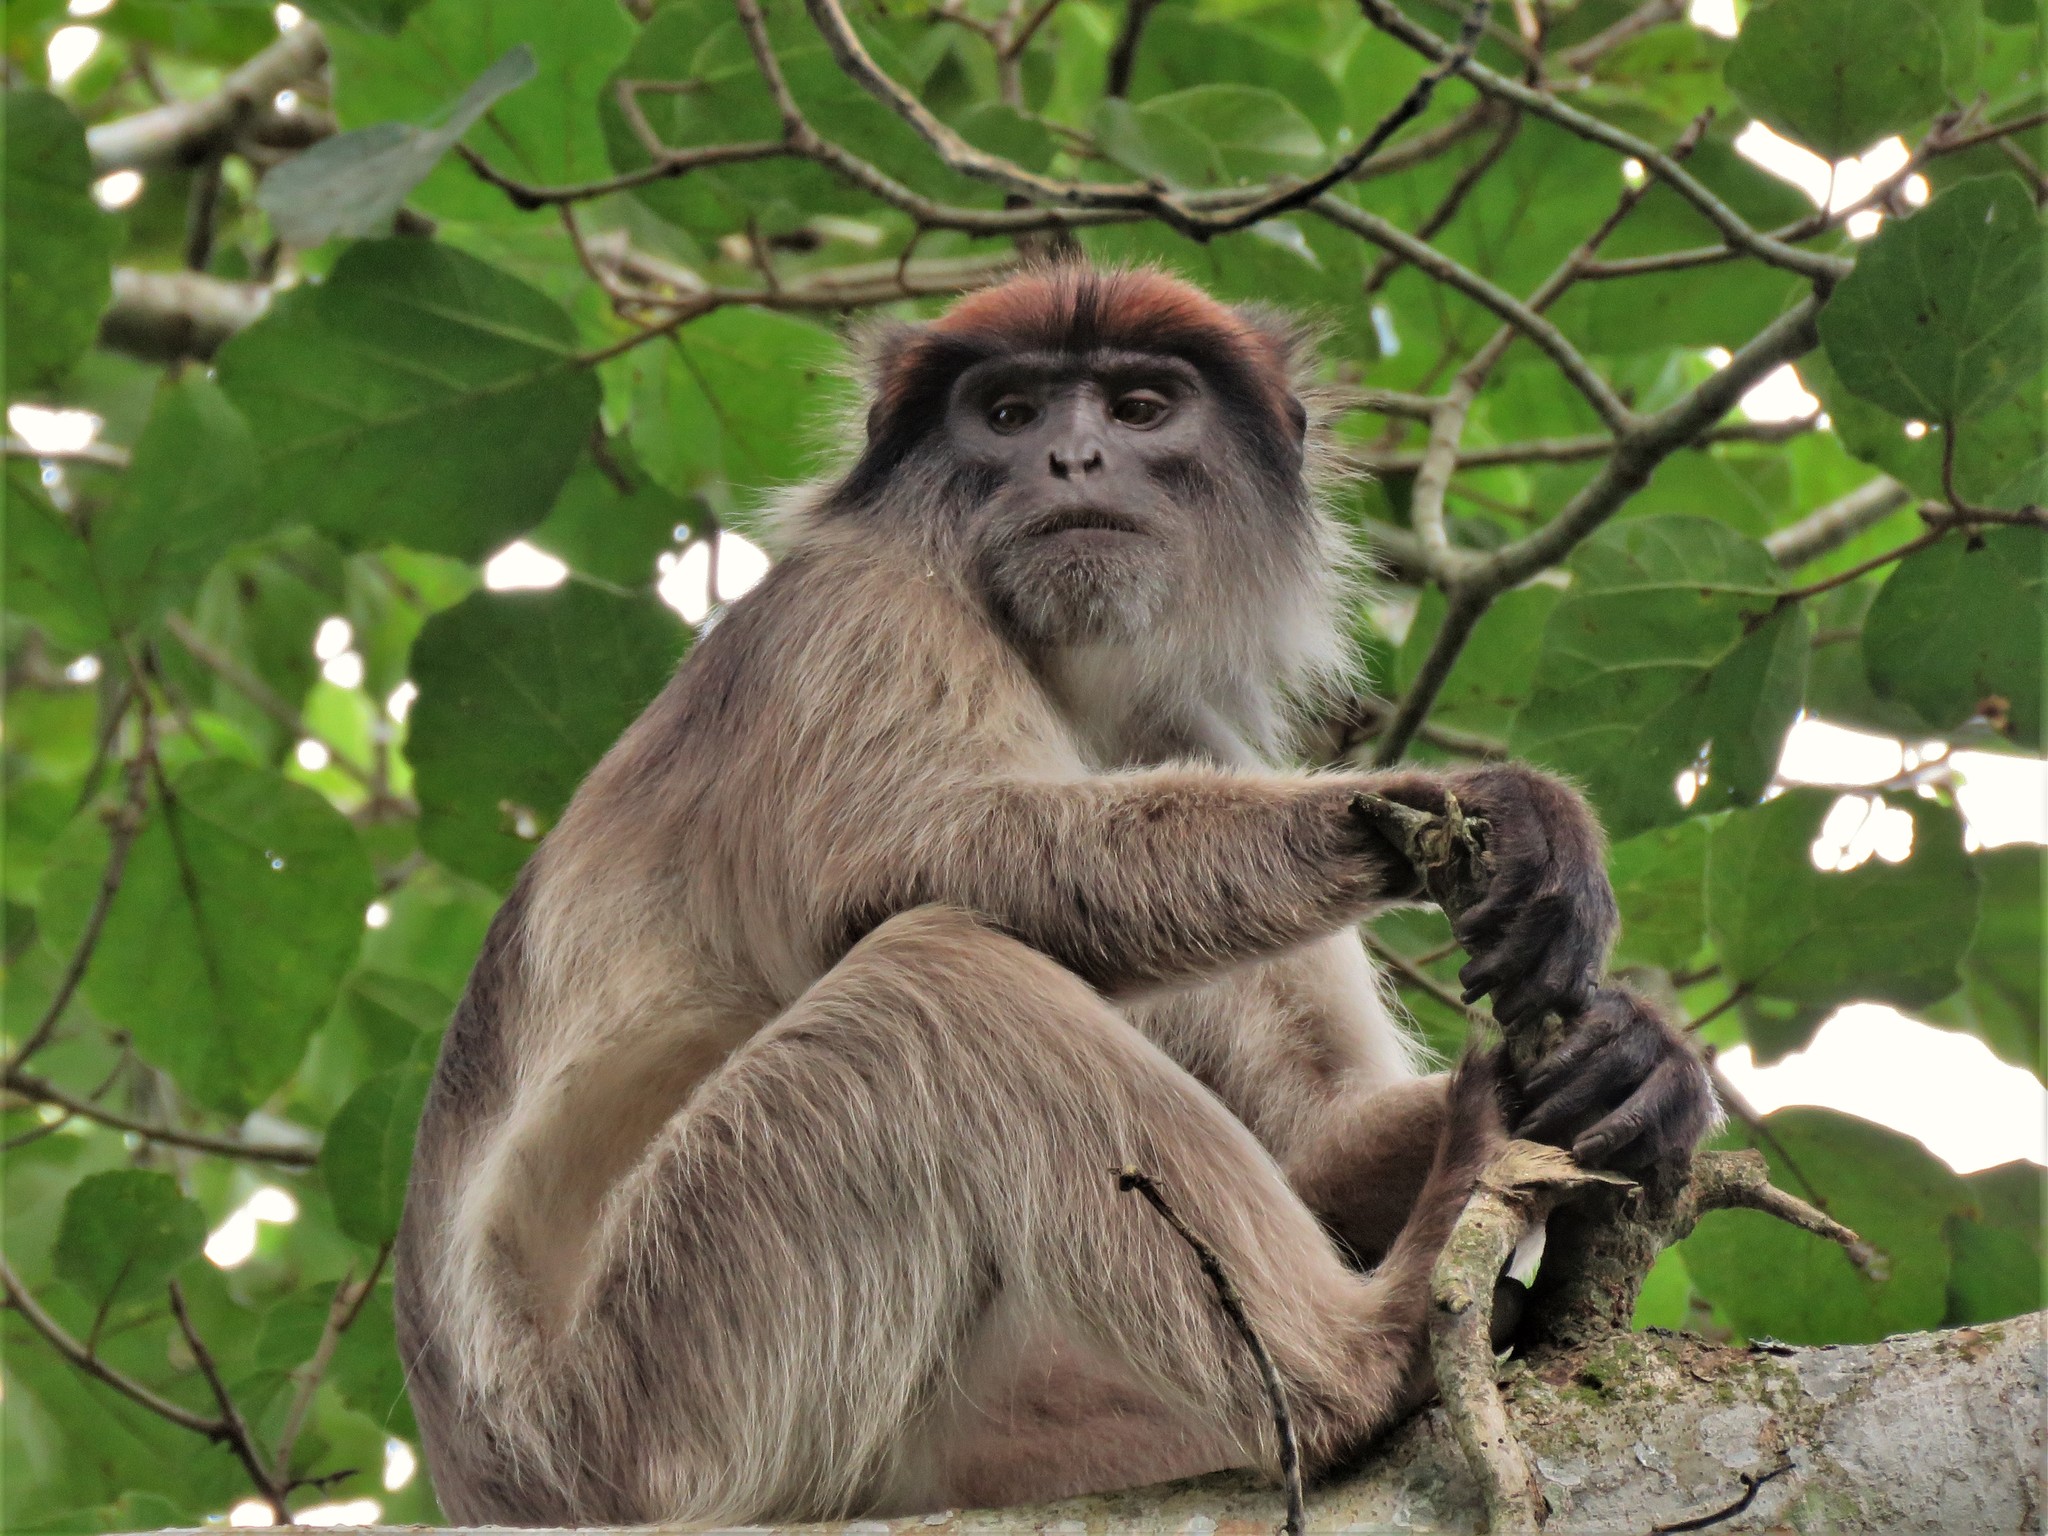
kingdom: Animalia
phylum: Chordata
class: Mammalia
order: Primates
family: Cercopithecidae
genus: Piliocolobus
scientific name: Piliocolobus tephrosceles
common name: Ugandan red colobus
